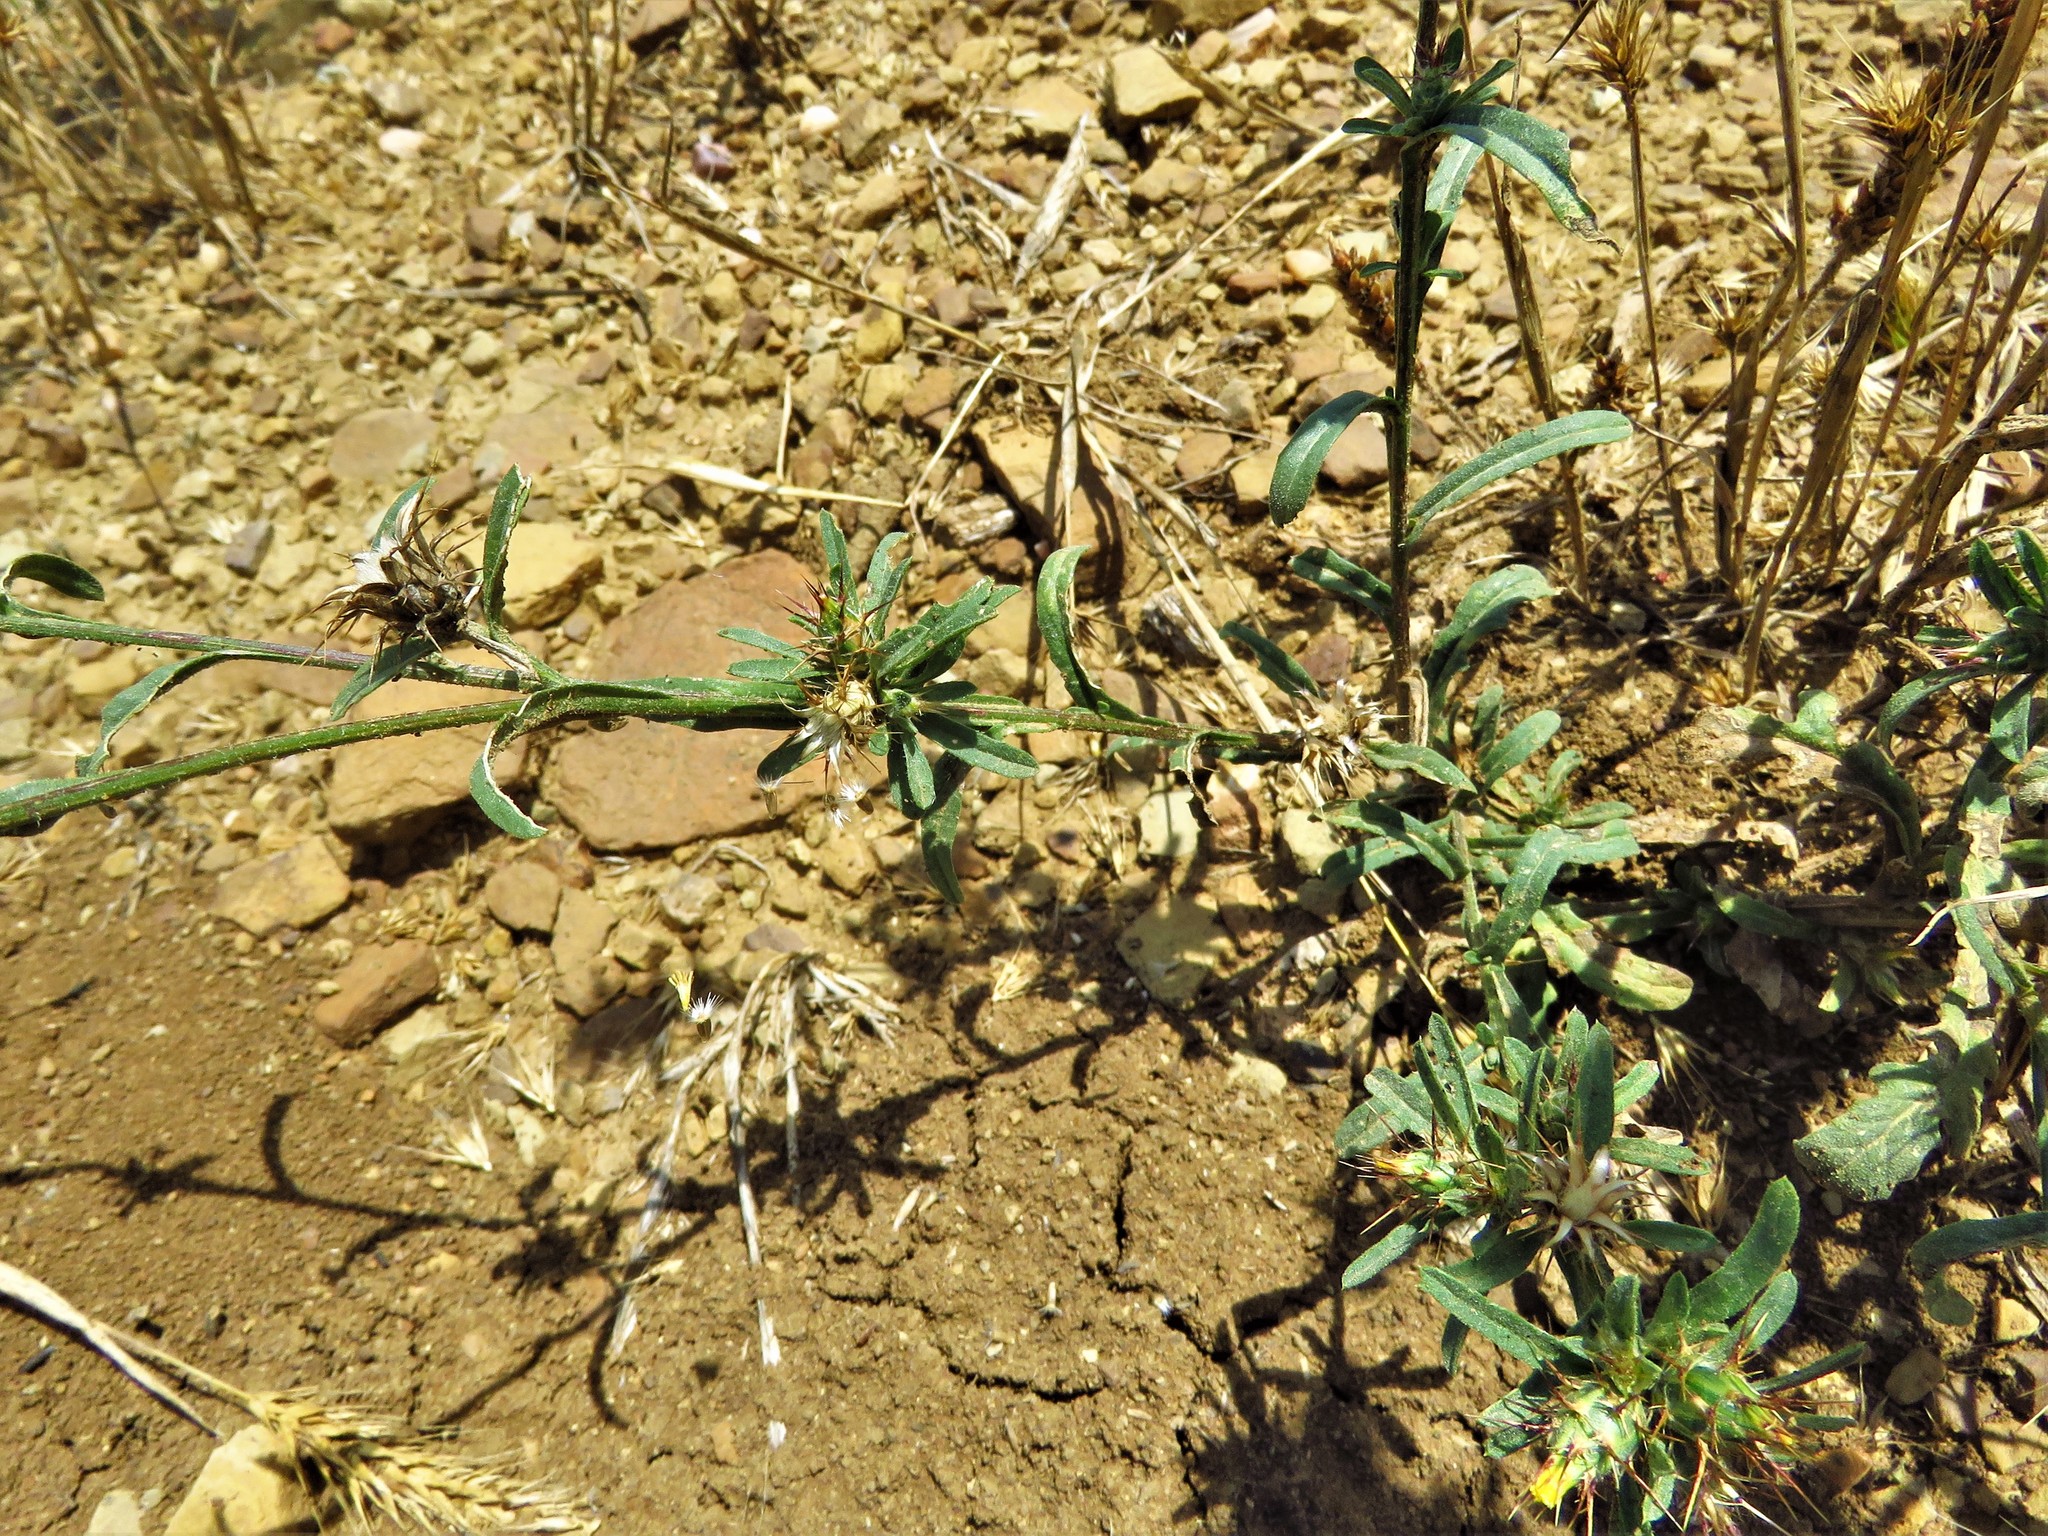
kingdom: Plantae
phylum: Tracheophyta
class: Magnoliopsida
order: Asterales
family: Asteraceae
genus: Centaurea
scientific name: Centaurea melitensis
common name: Maltese star-thistle
